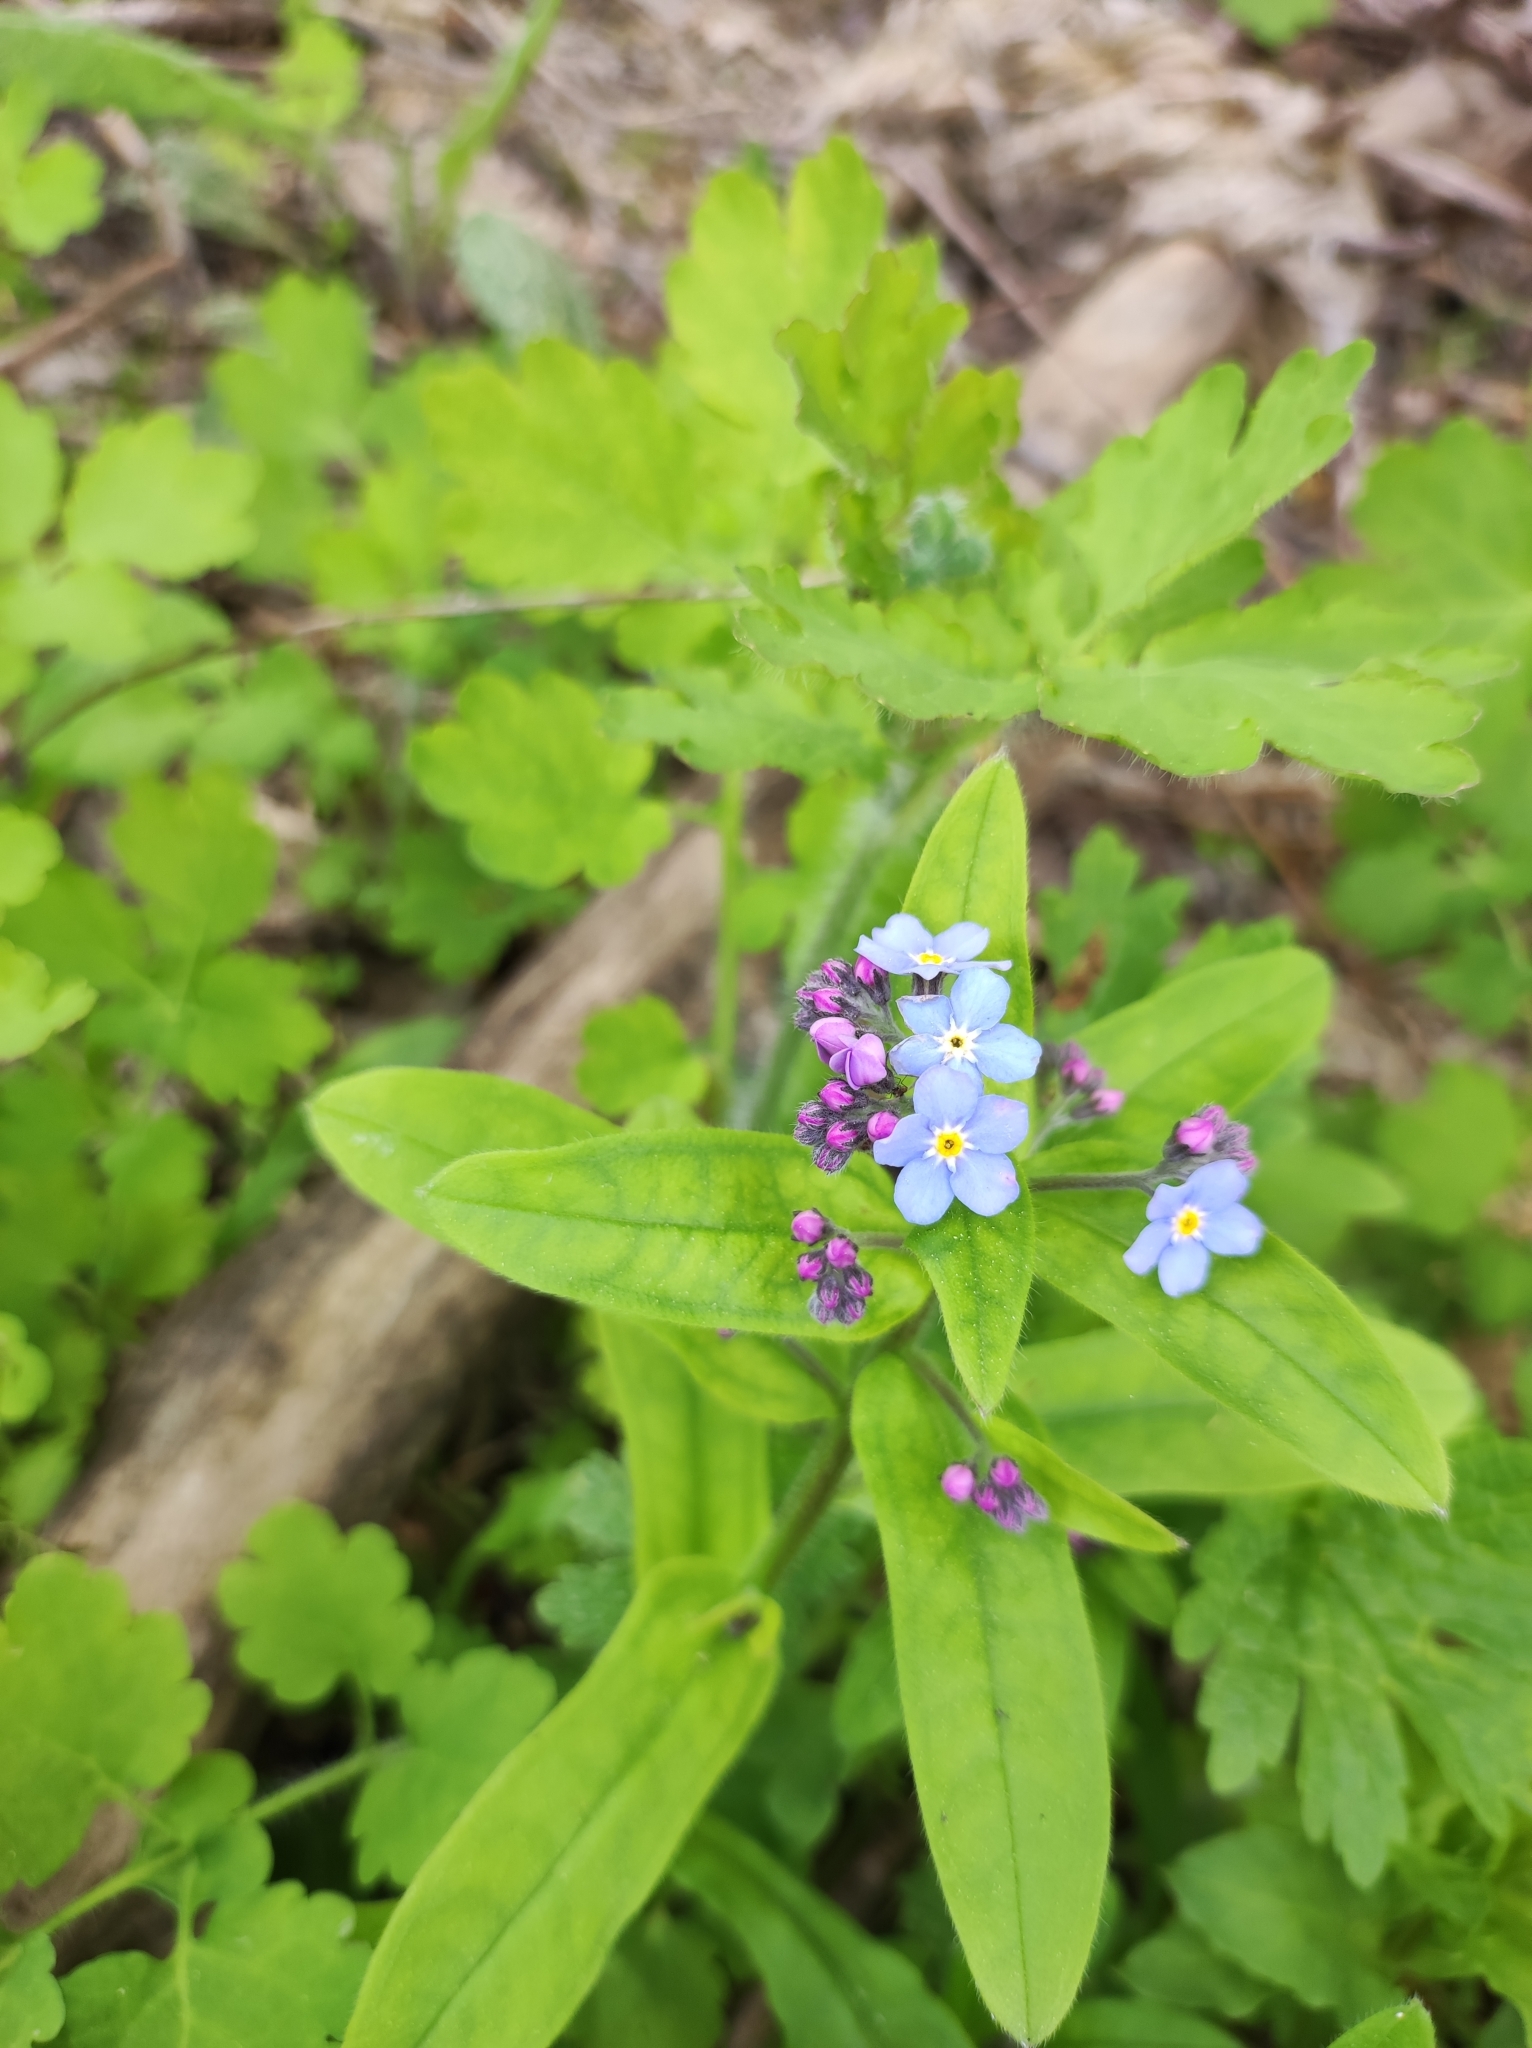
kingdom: Plantae
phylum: Tracheophyta
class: Magnoliopsida
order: Boraginales
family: Boraginaceae
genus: Myosotis
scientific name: Myosotis sylvatica
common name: Wood forget-me-not
